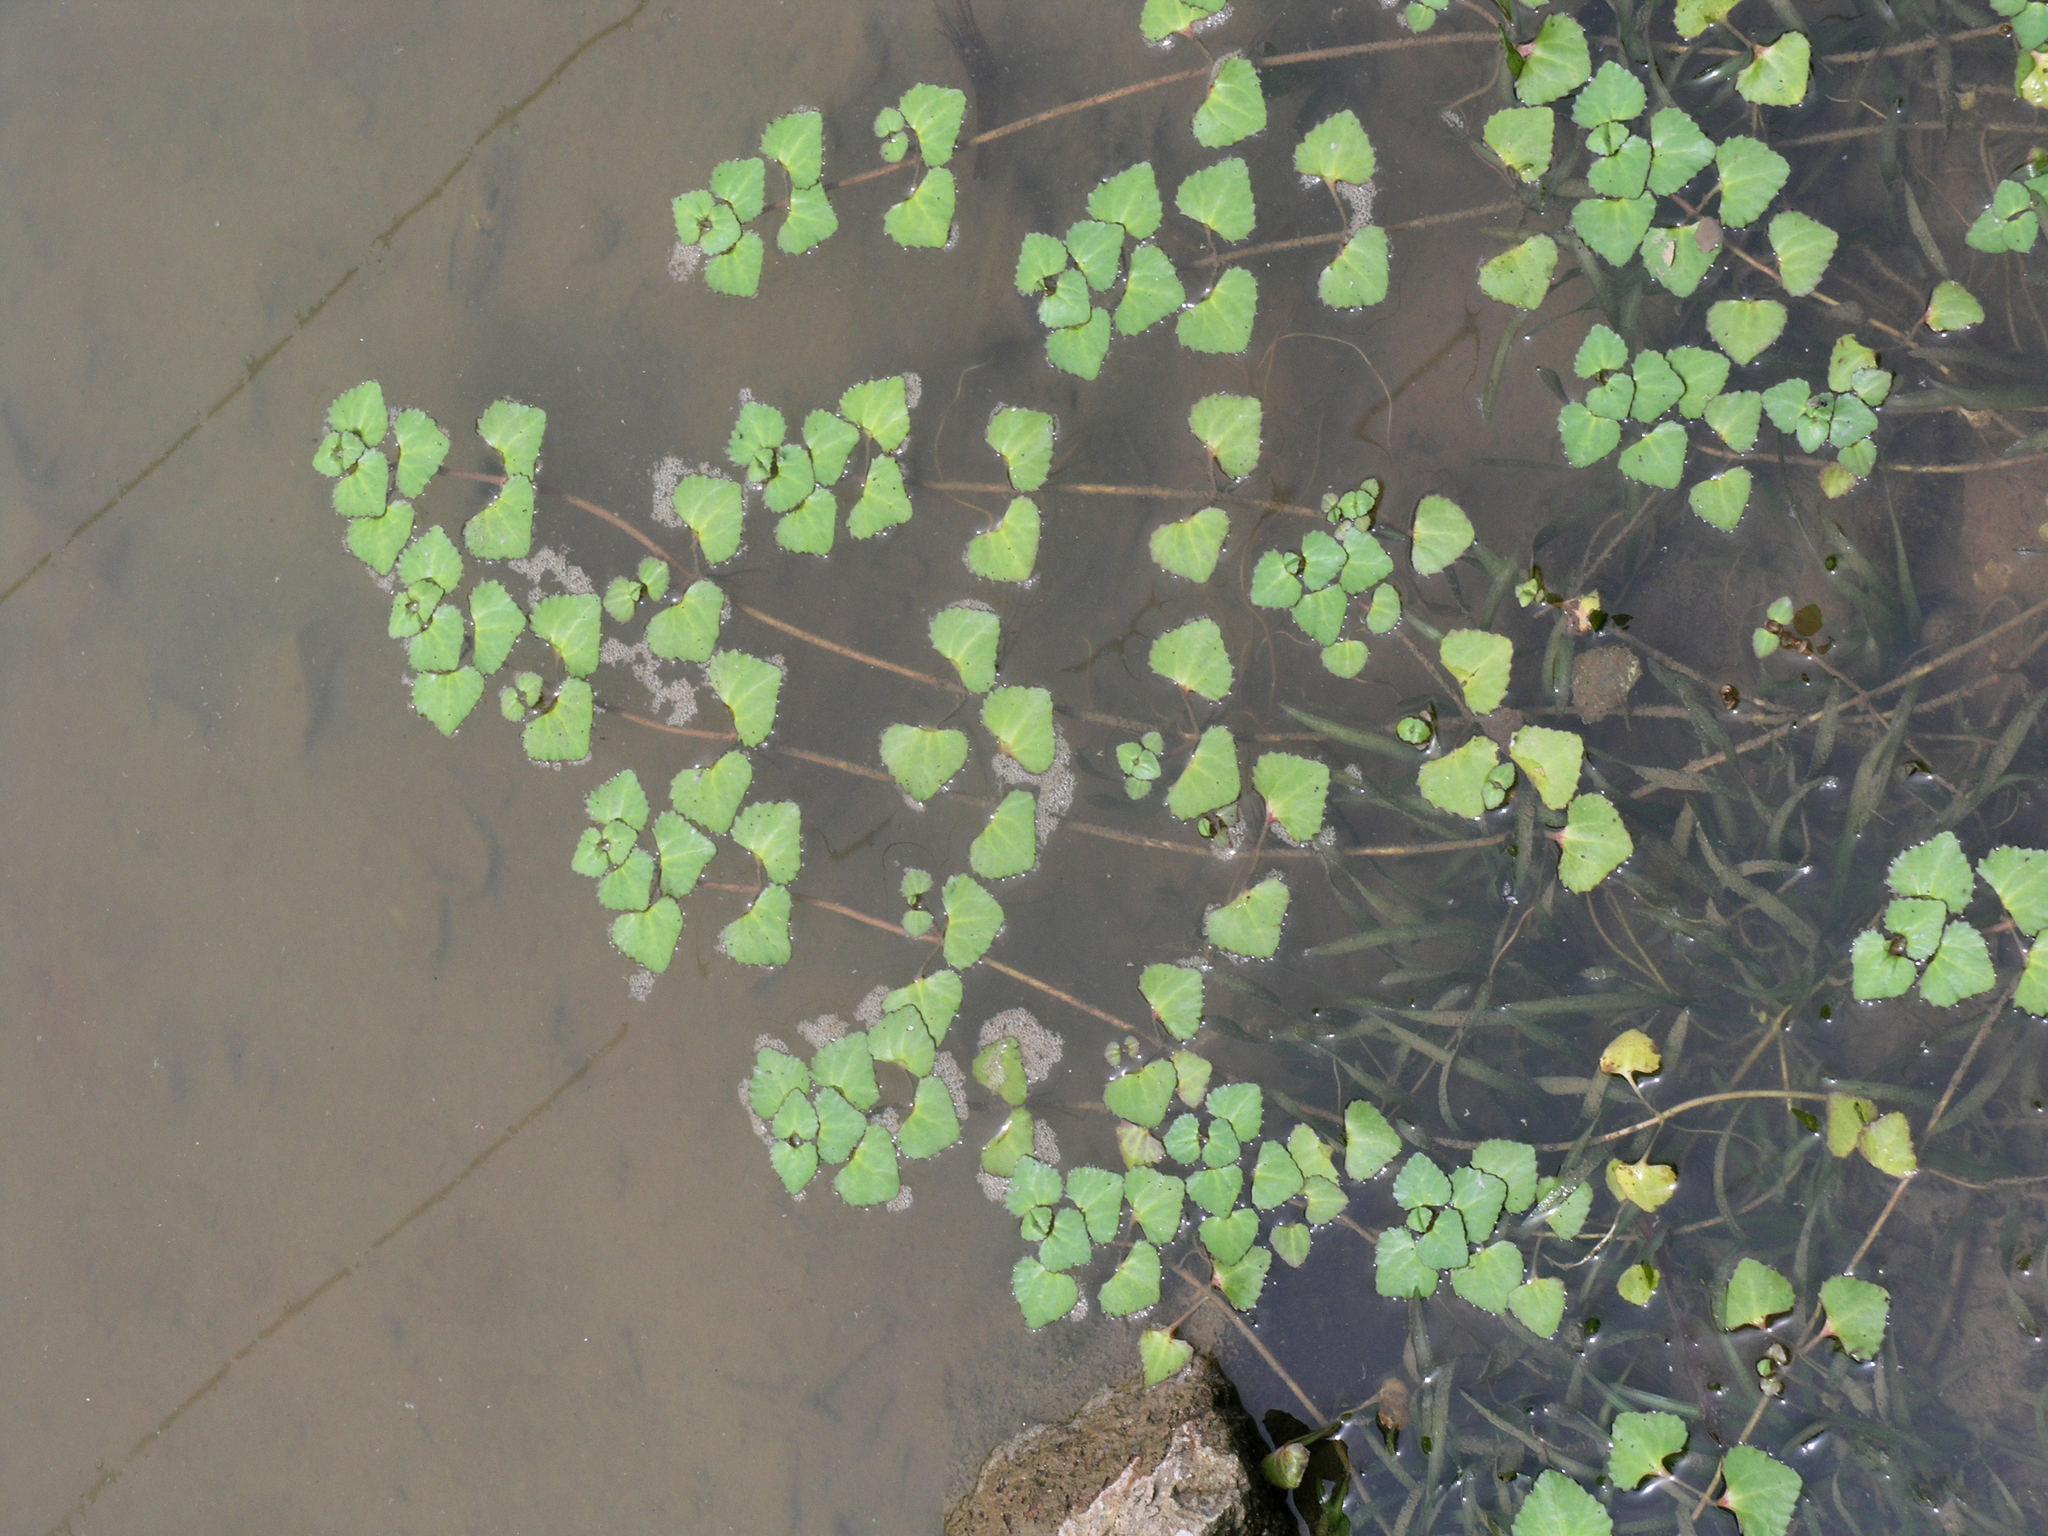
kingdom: Plantae
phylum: Tracheophyta
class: Magnoliopsida
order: Lamiales
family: Plantaginaceae
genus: Trapella
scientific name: Trapella sinensis
